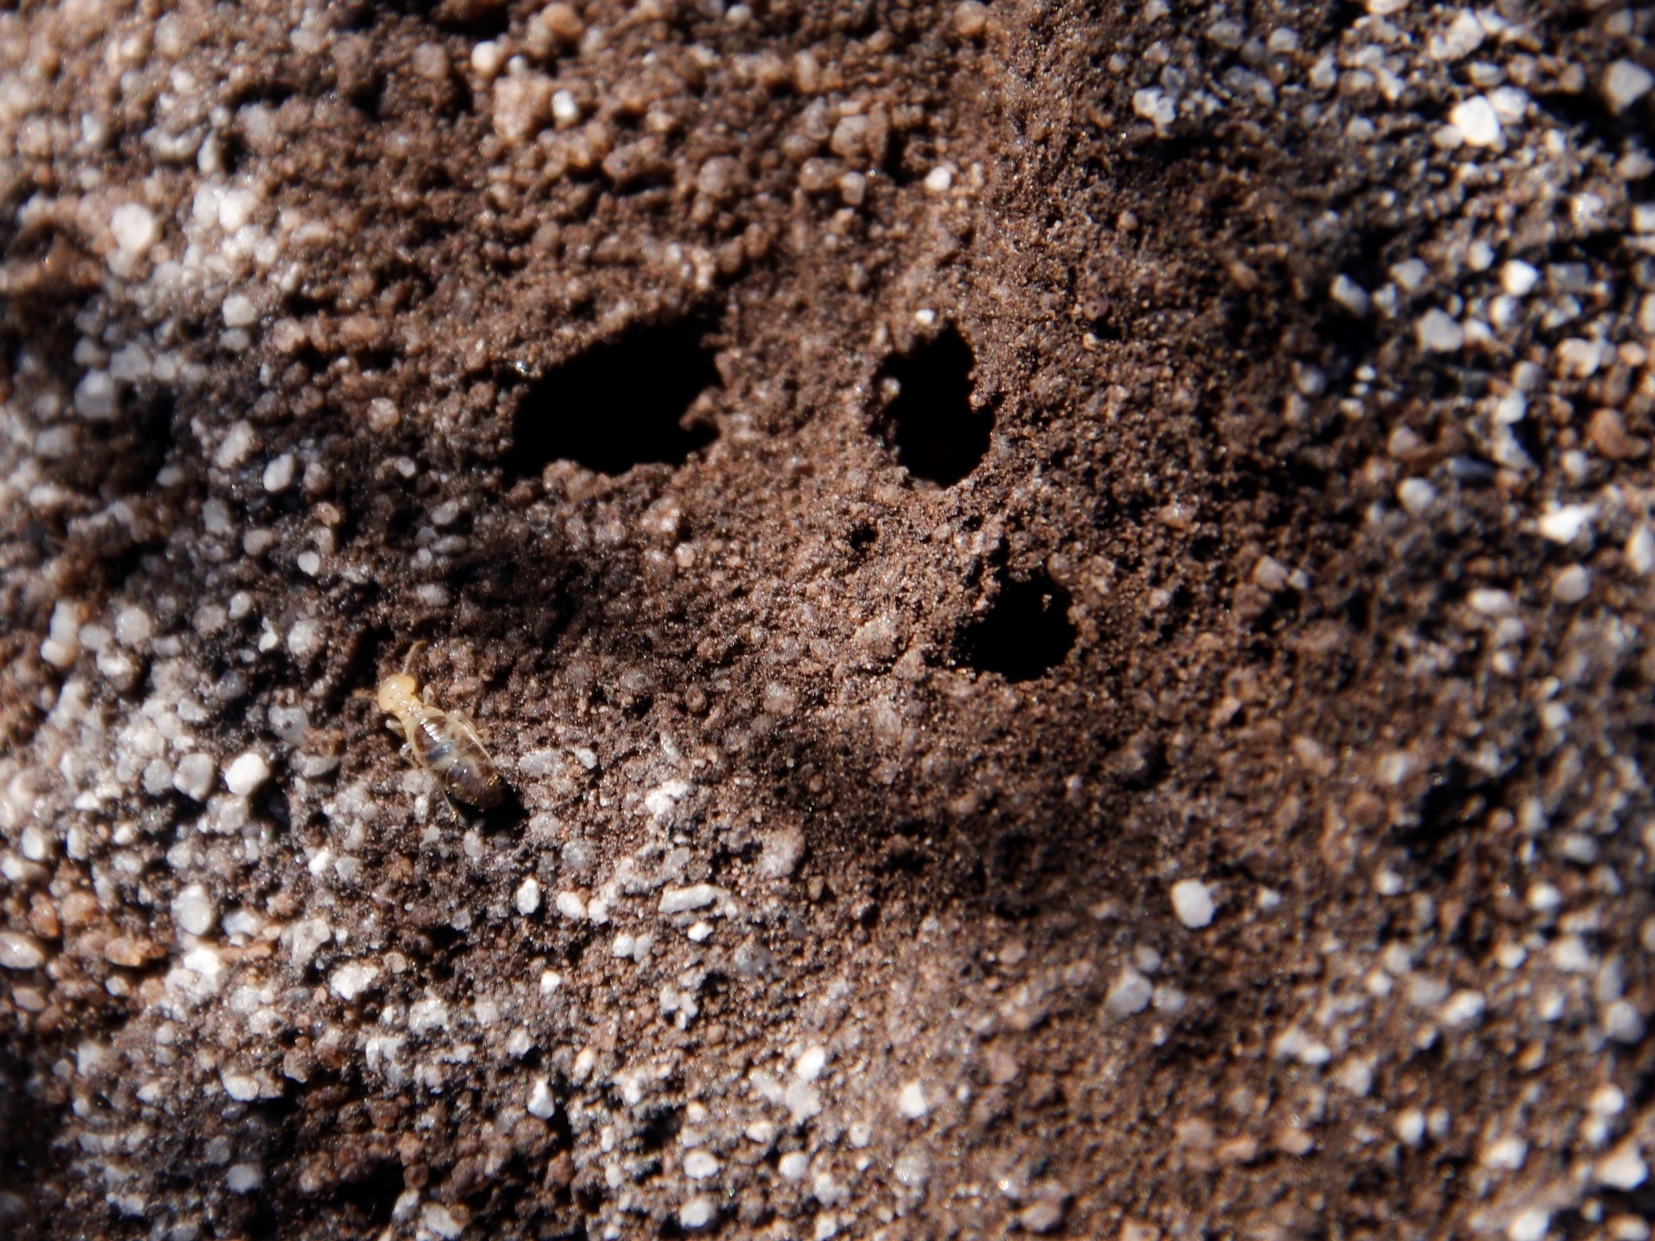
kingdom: Animalia
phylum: Arthropoda
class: Insecta
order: Blattodea
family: Termitidae
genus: Amitermes
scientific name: Amitermes hastatus
